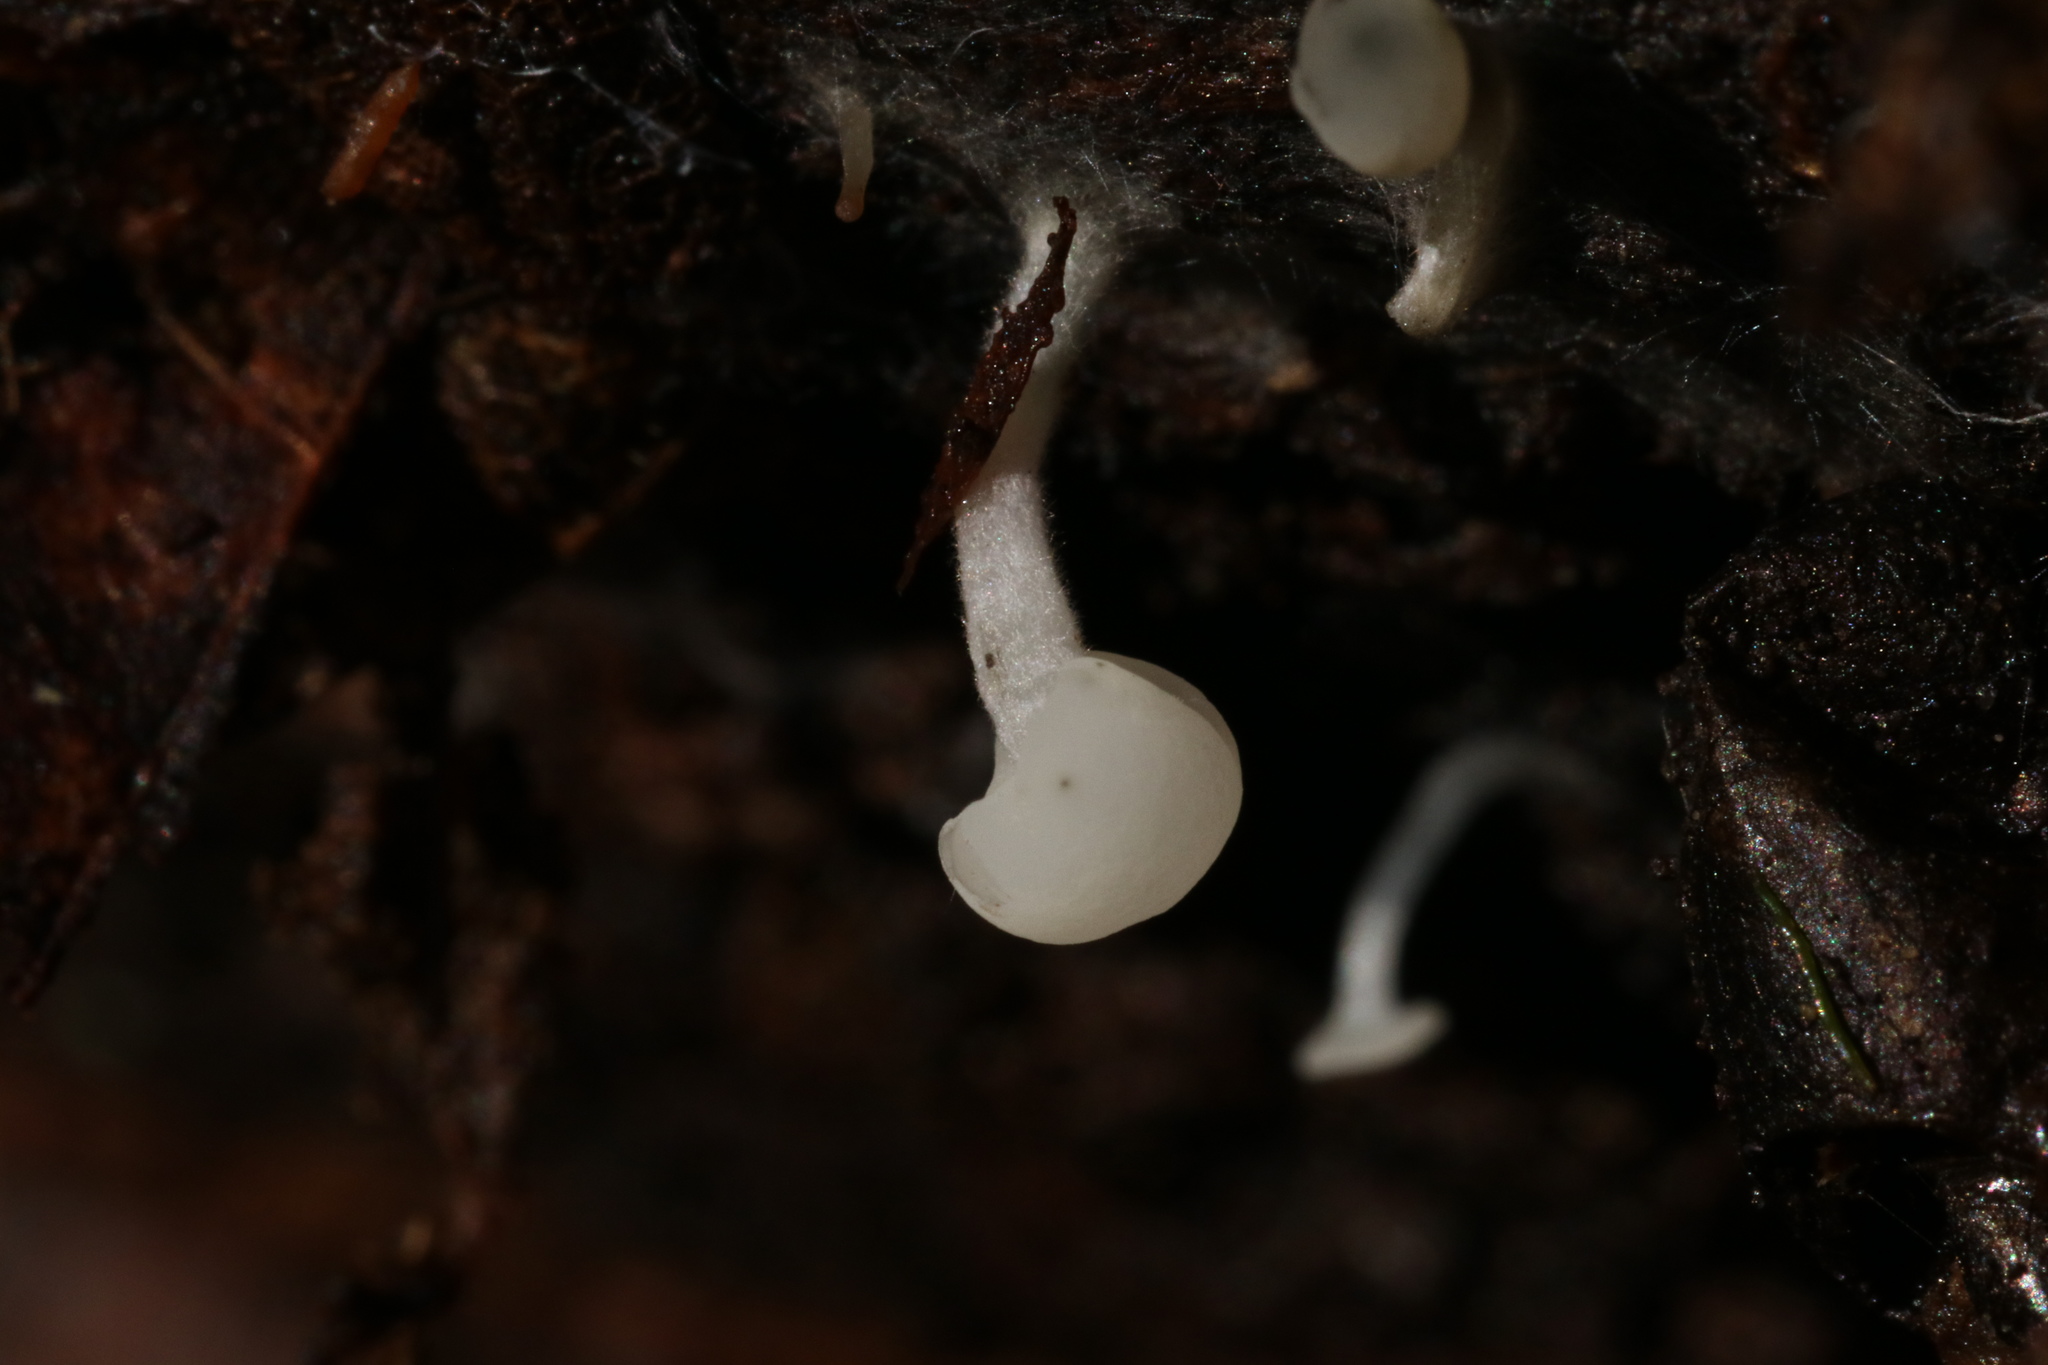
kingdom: Fungi
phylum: Ascomycota
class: Leotiomycetes
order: Helotiales
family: Tricladiaceae
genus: Cudoniella
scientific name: Cudoniella acicularis
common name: Oak pin
